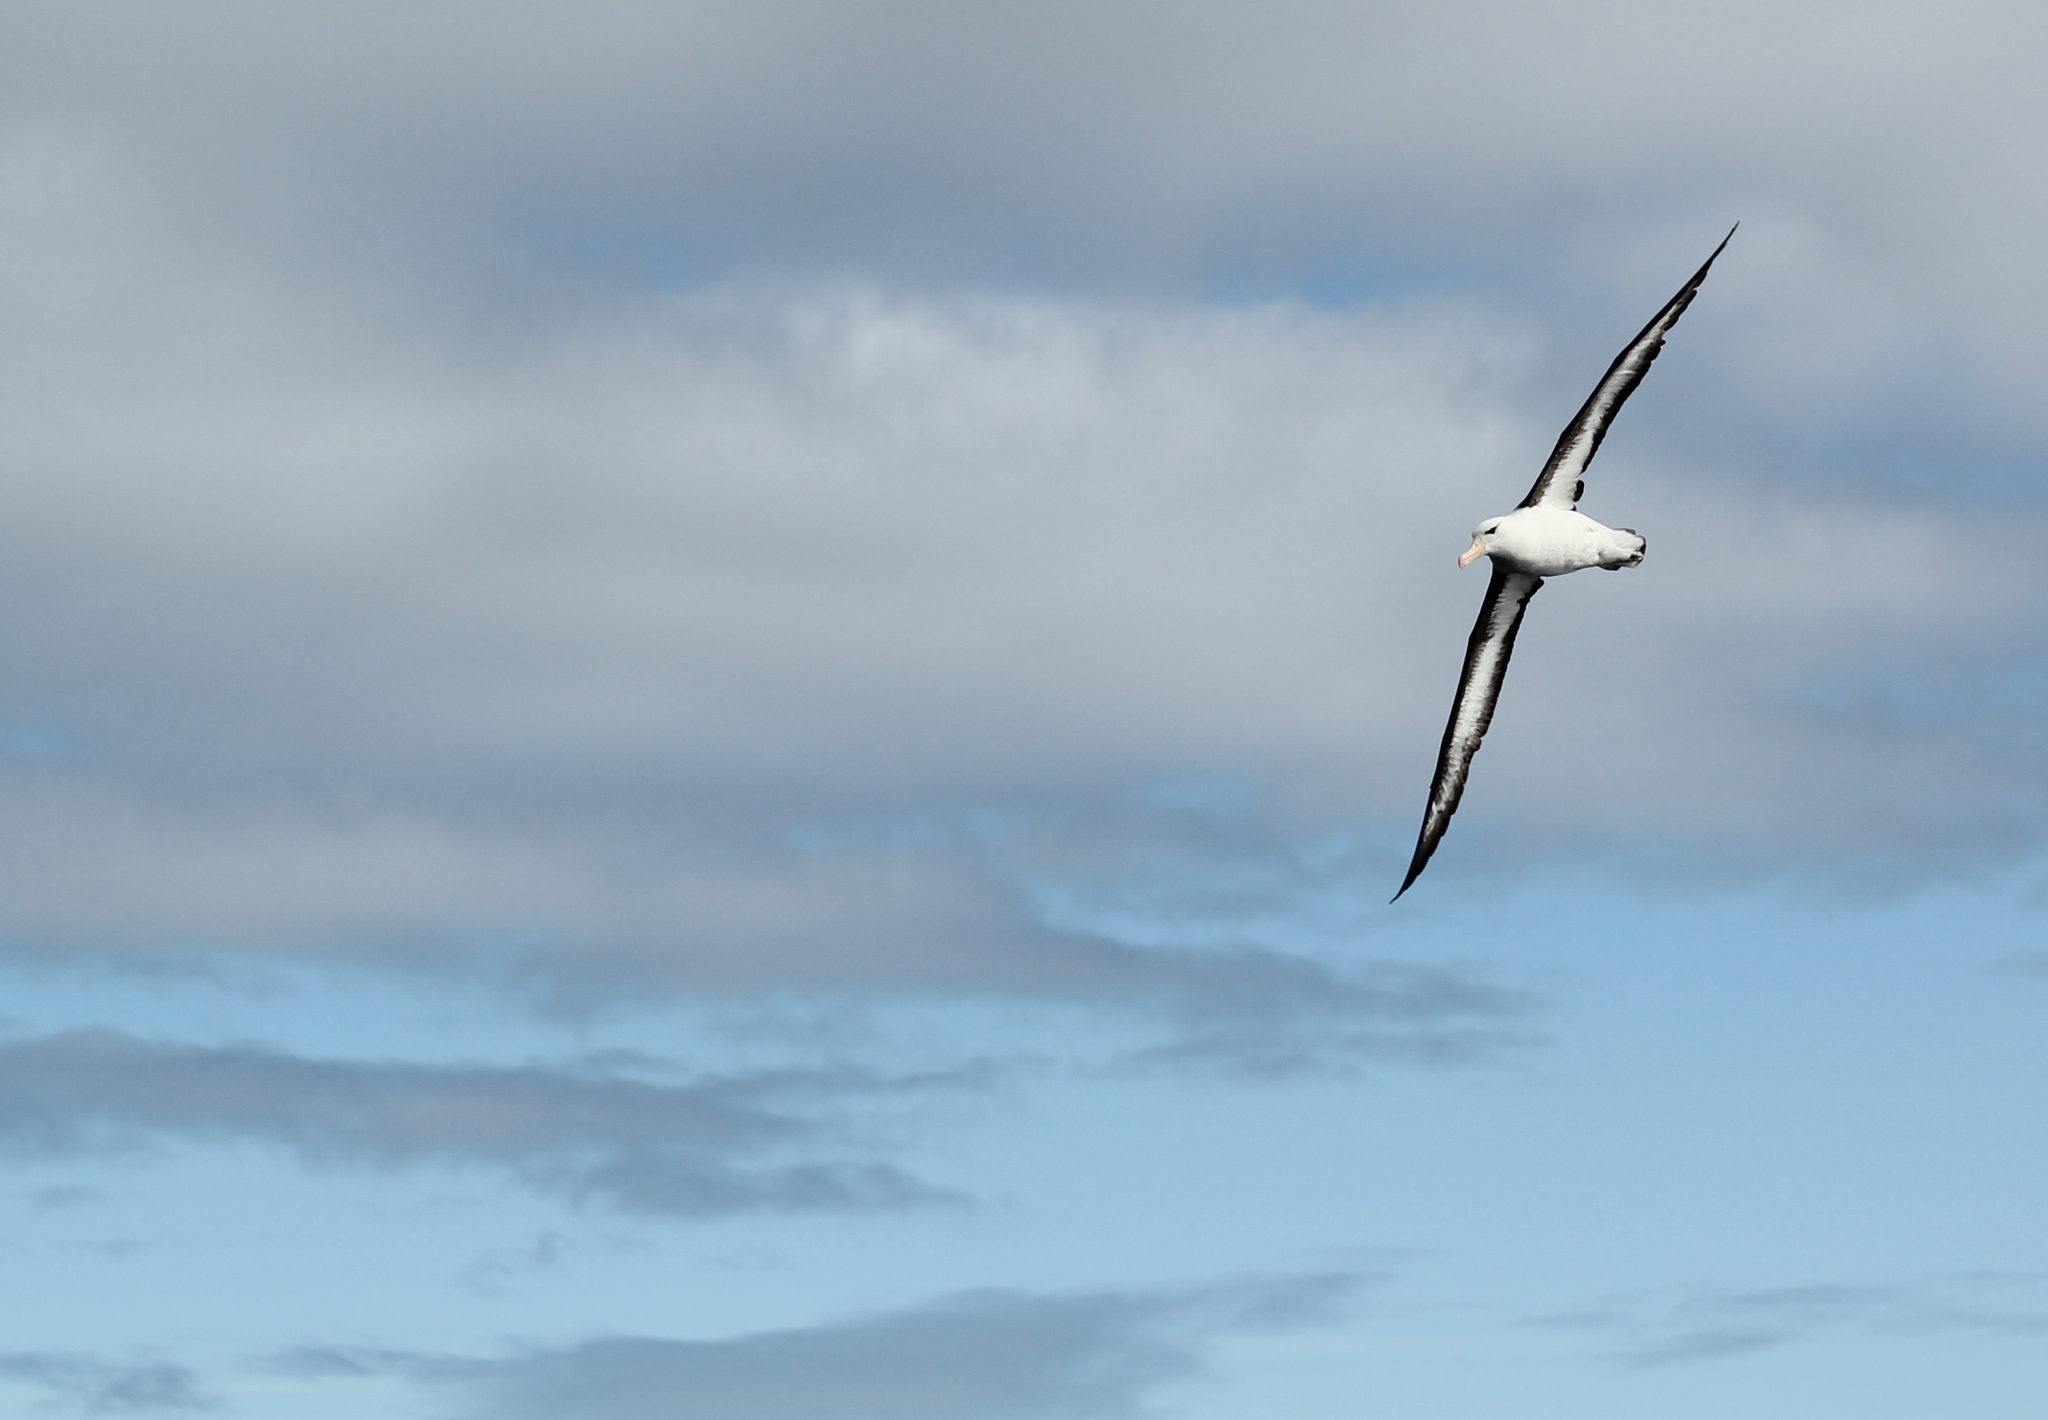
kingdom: Animalia
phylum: Chordata
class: Aves
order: Procellariiformes
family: Diomedeidae
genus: Thalassarche
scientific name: Thalassarche melanophris
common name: Black-browed albatross
